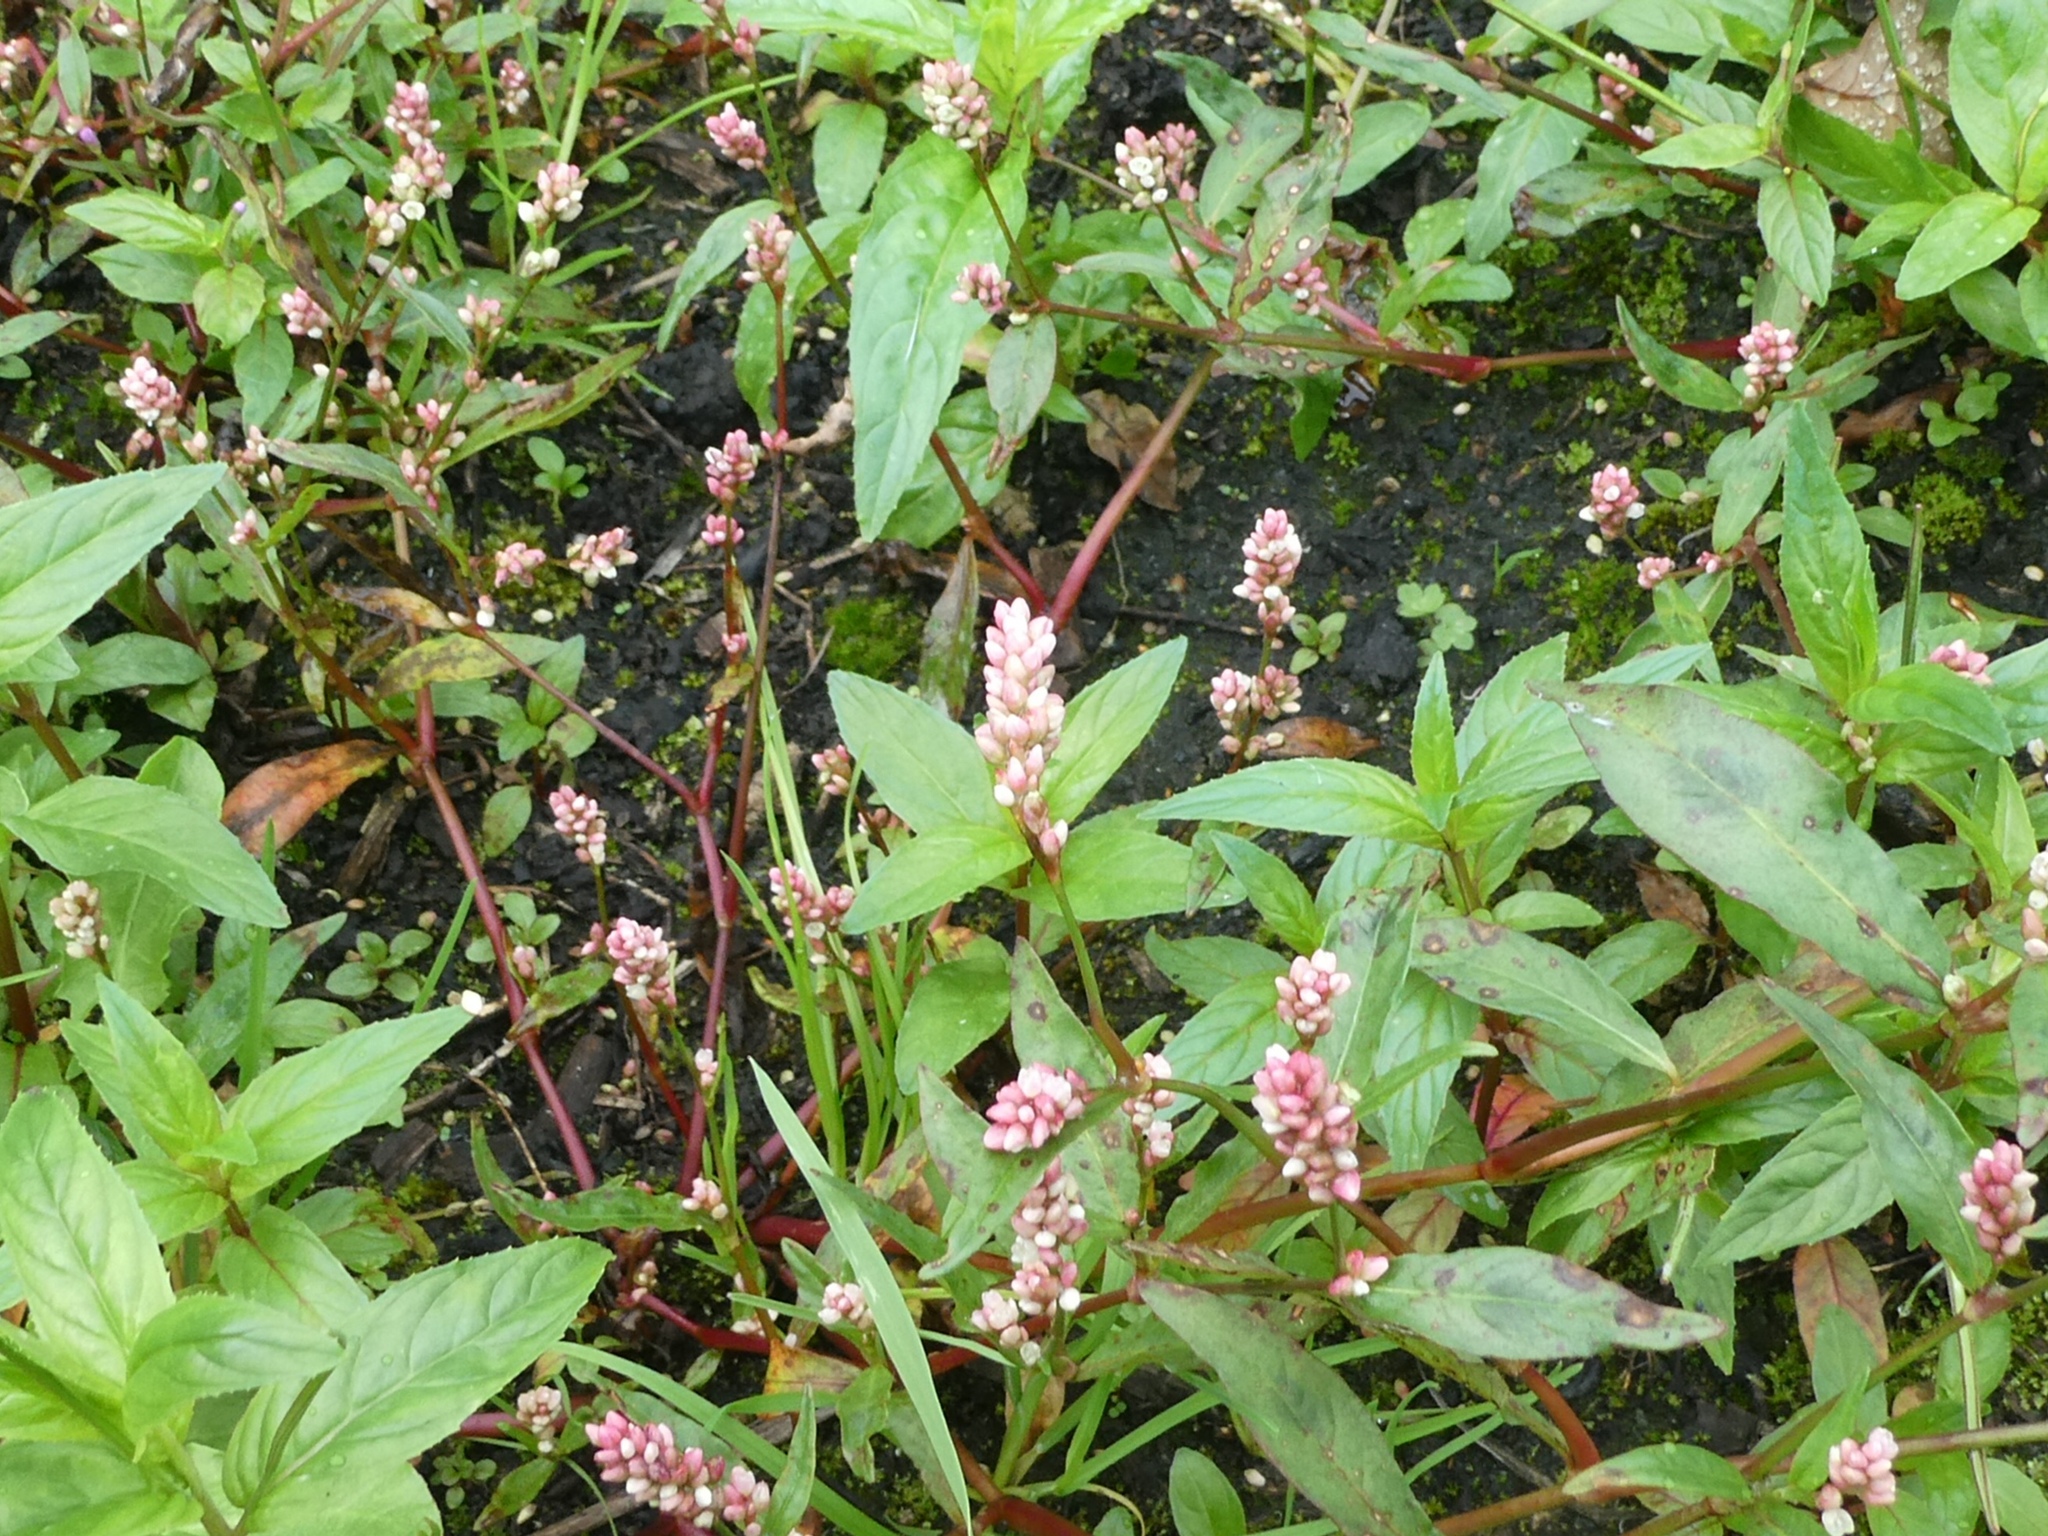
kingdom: Plantae
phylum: Tracheophyta
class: Magnoliopsida
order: Caryophyllales
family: Polygonaceae
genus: Persicaria
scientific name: Persicaria maculosa
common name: Redshank
